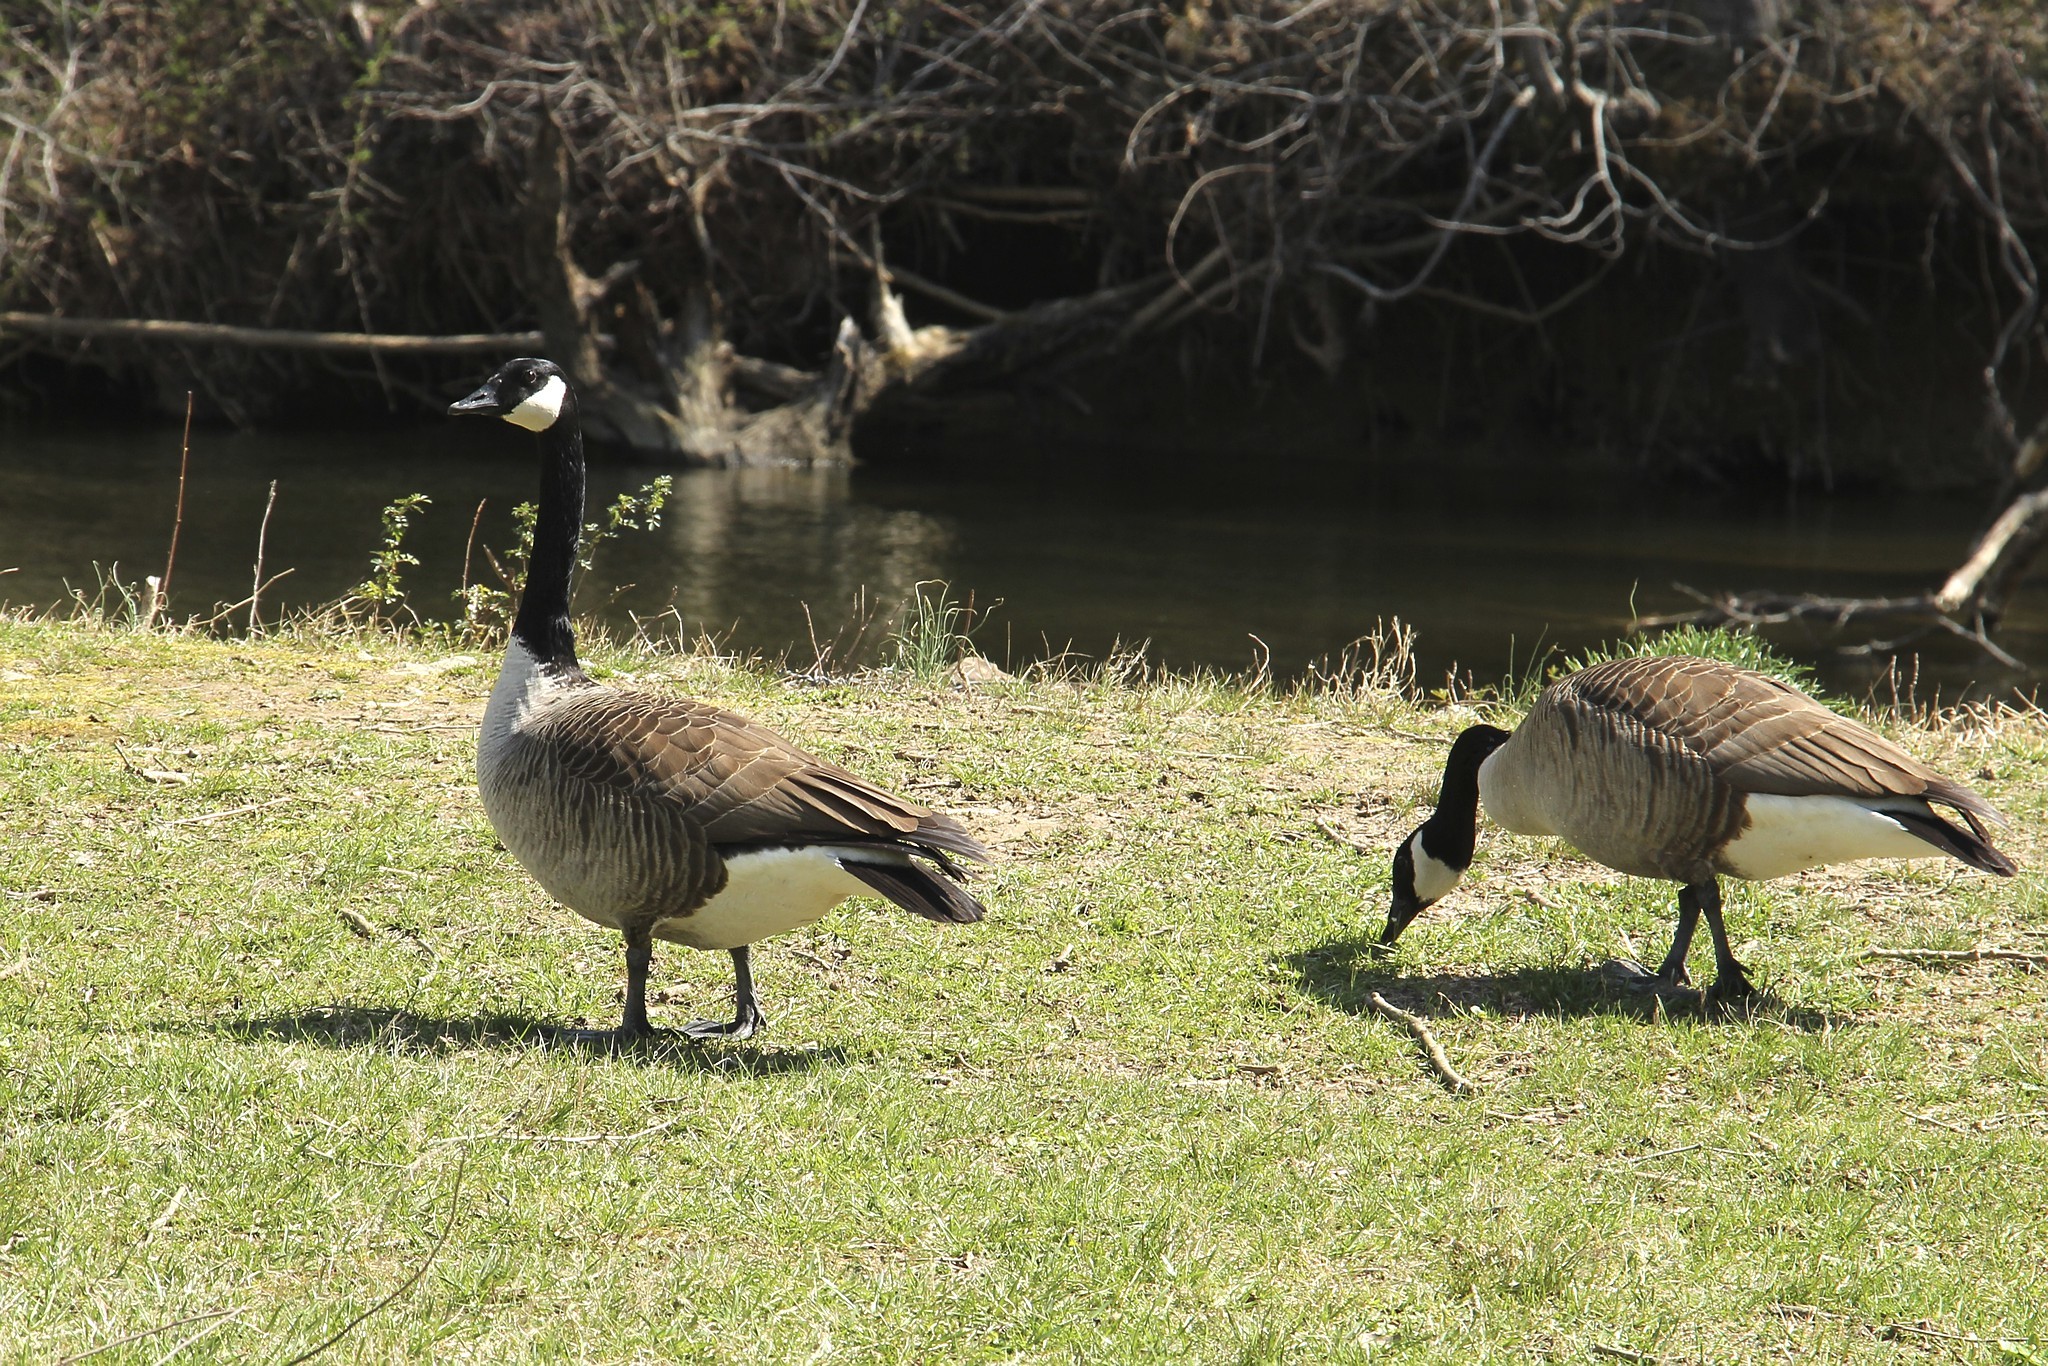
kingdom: Animalia
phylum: Chordata
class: Aves
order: Anseriformes
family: Anatidae
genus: Branta
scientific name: Branta canadensis
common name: Canada goose
